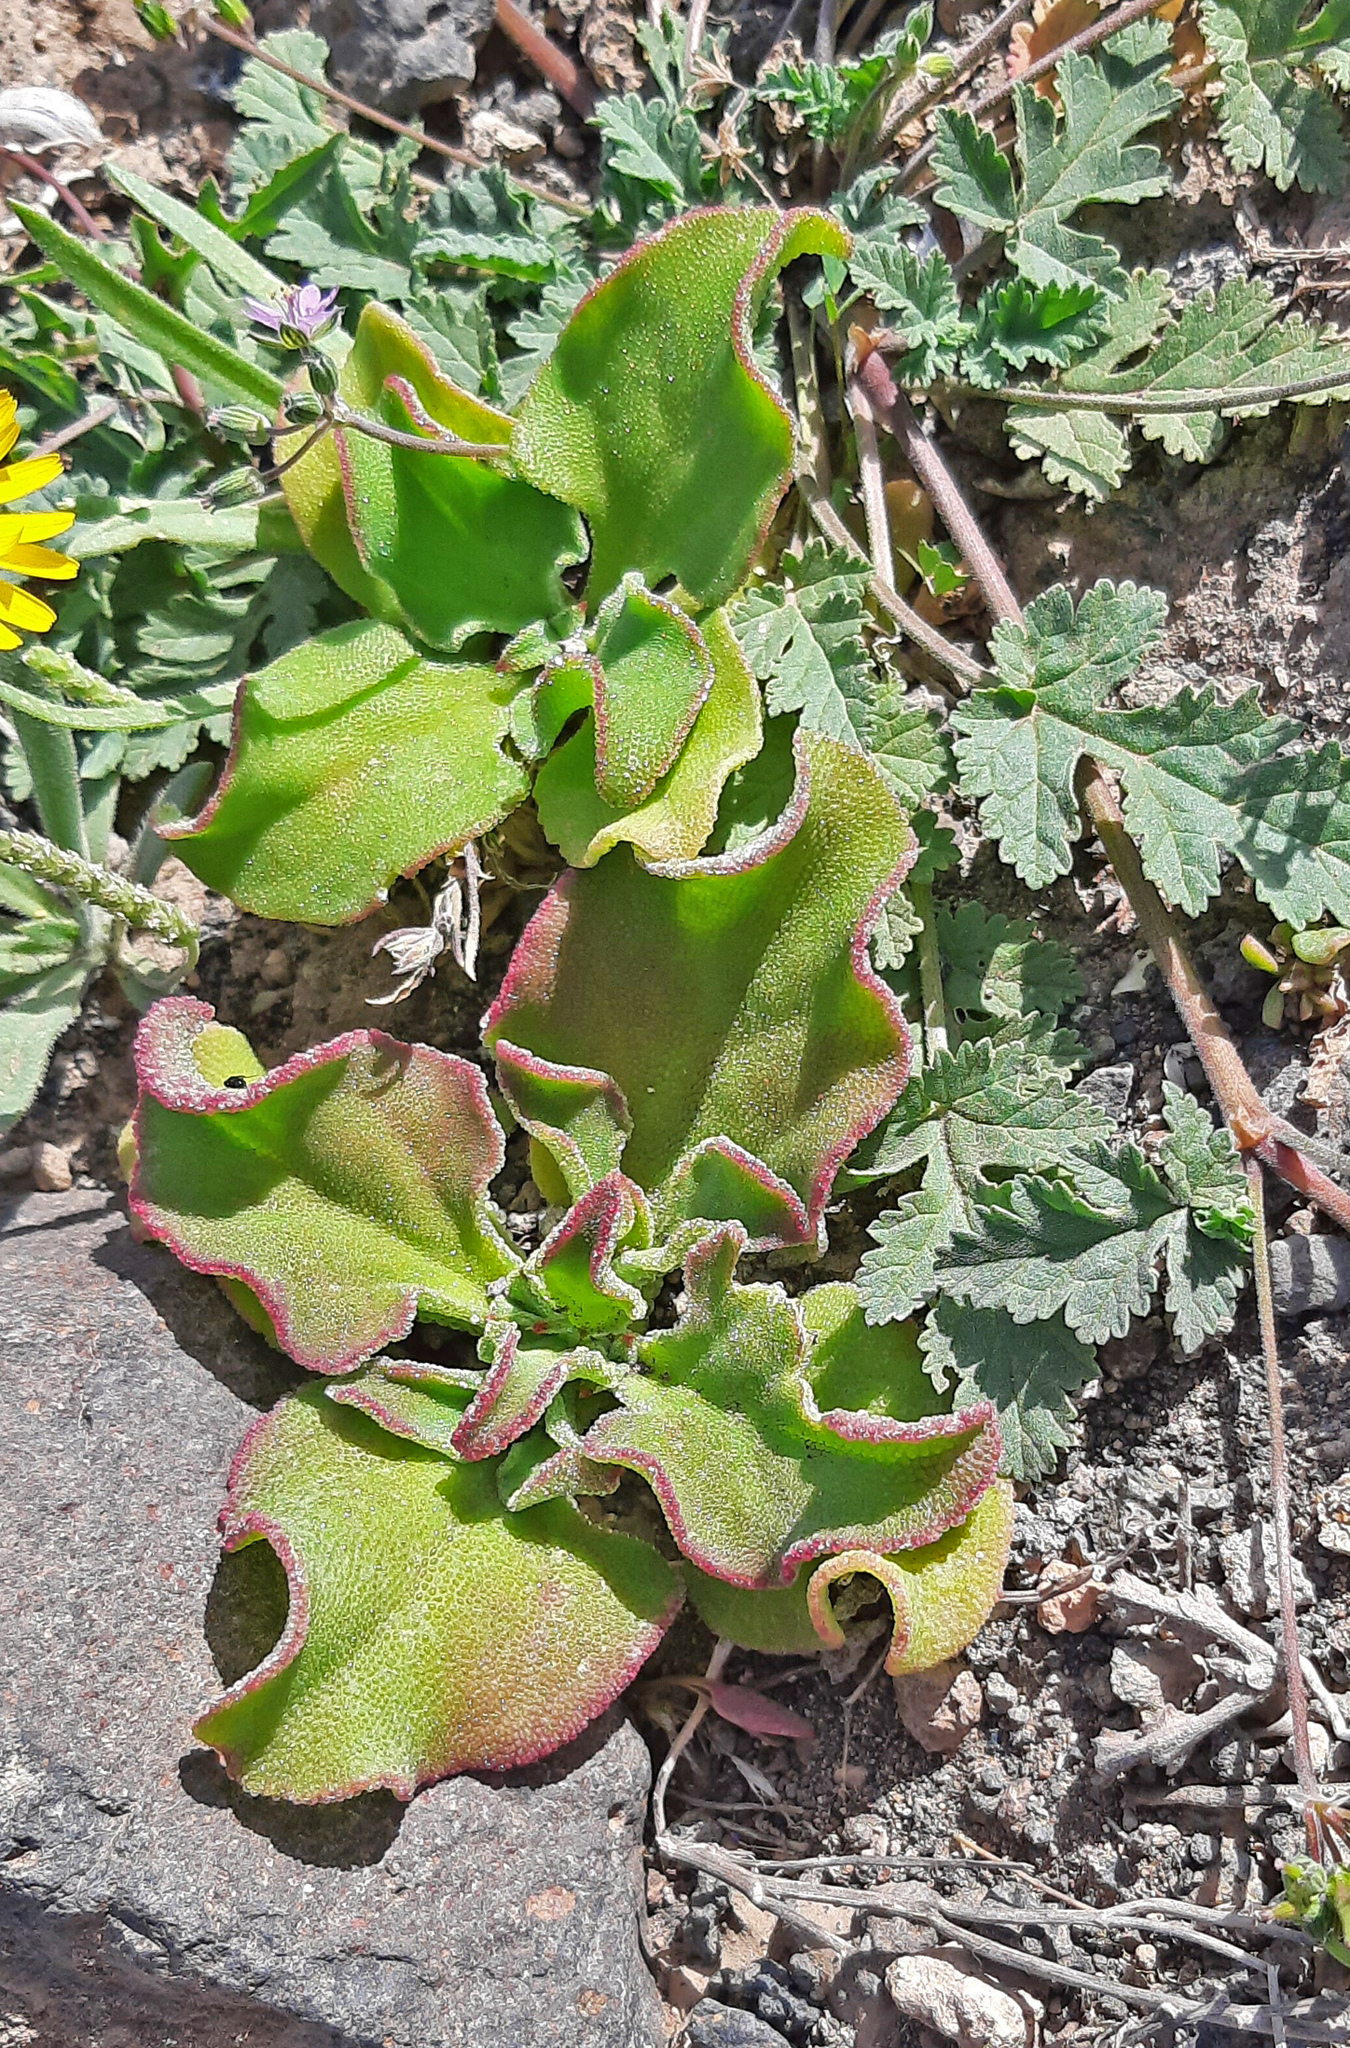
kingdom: Plantae
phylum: Tracheophyta
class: Magnoliopsida
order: Caryophyllales
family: Aizoaceae
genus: Mesembryanthemum
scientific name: Mesembryanthemum crystallinum
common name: Common iceplant
